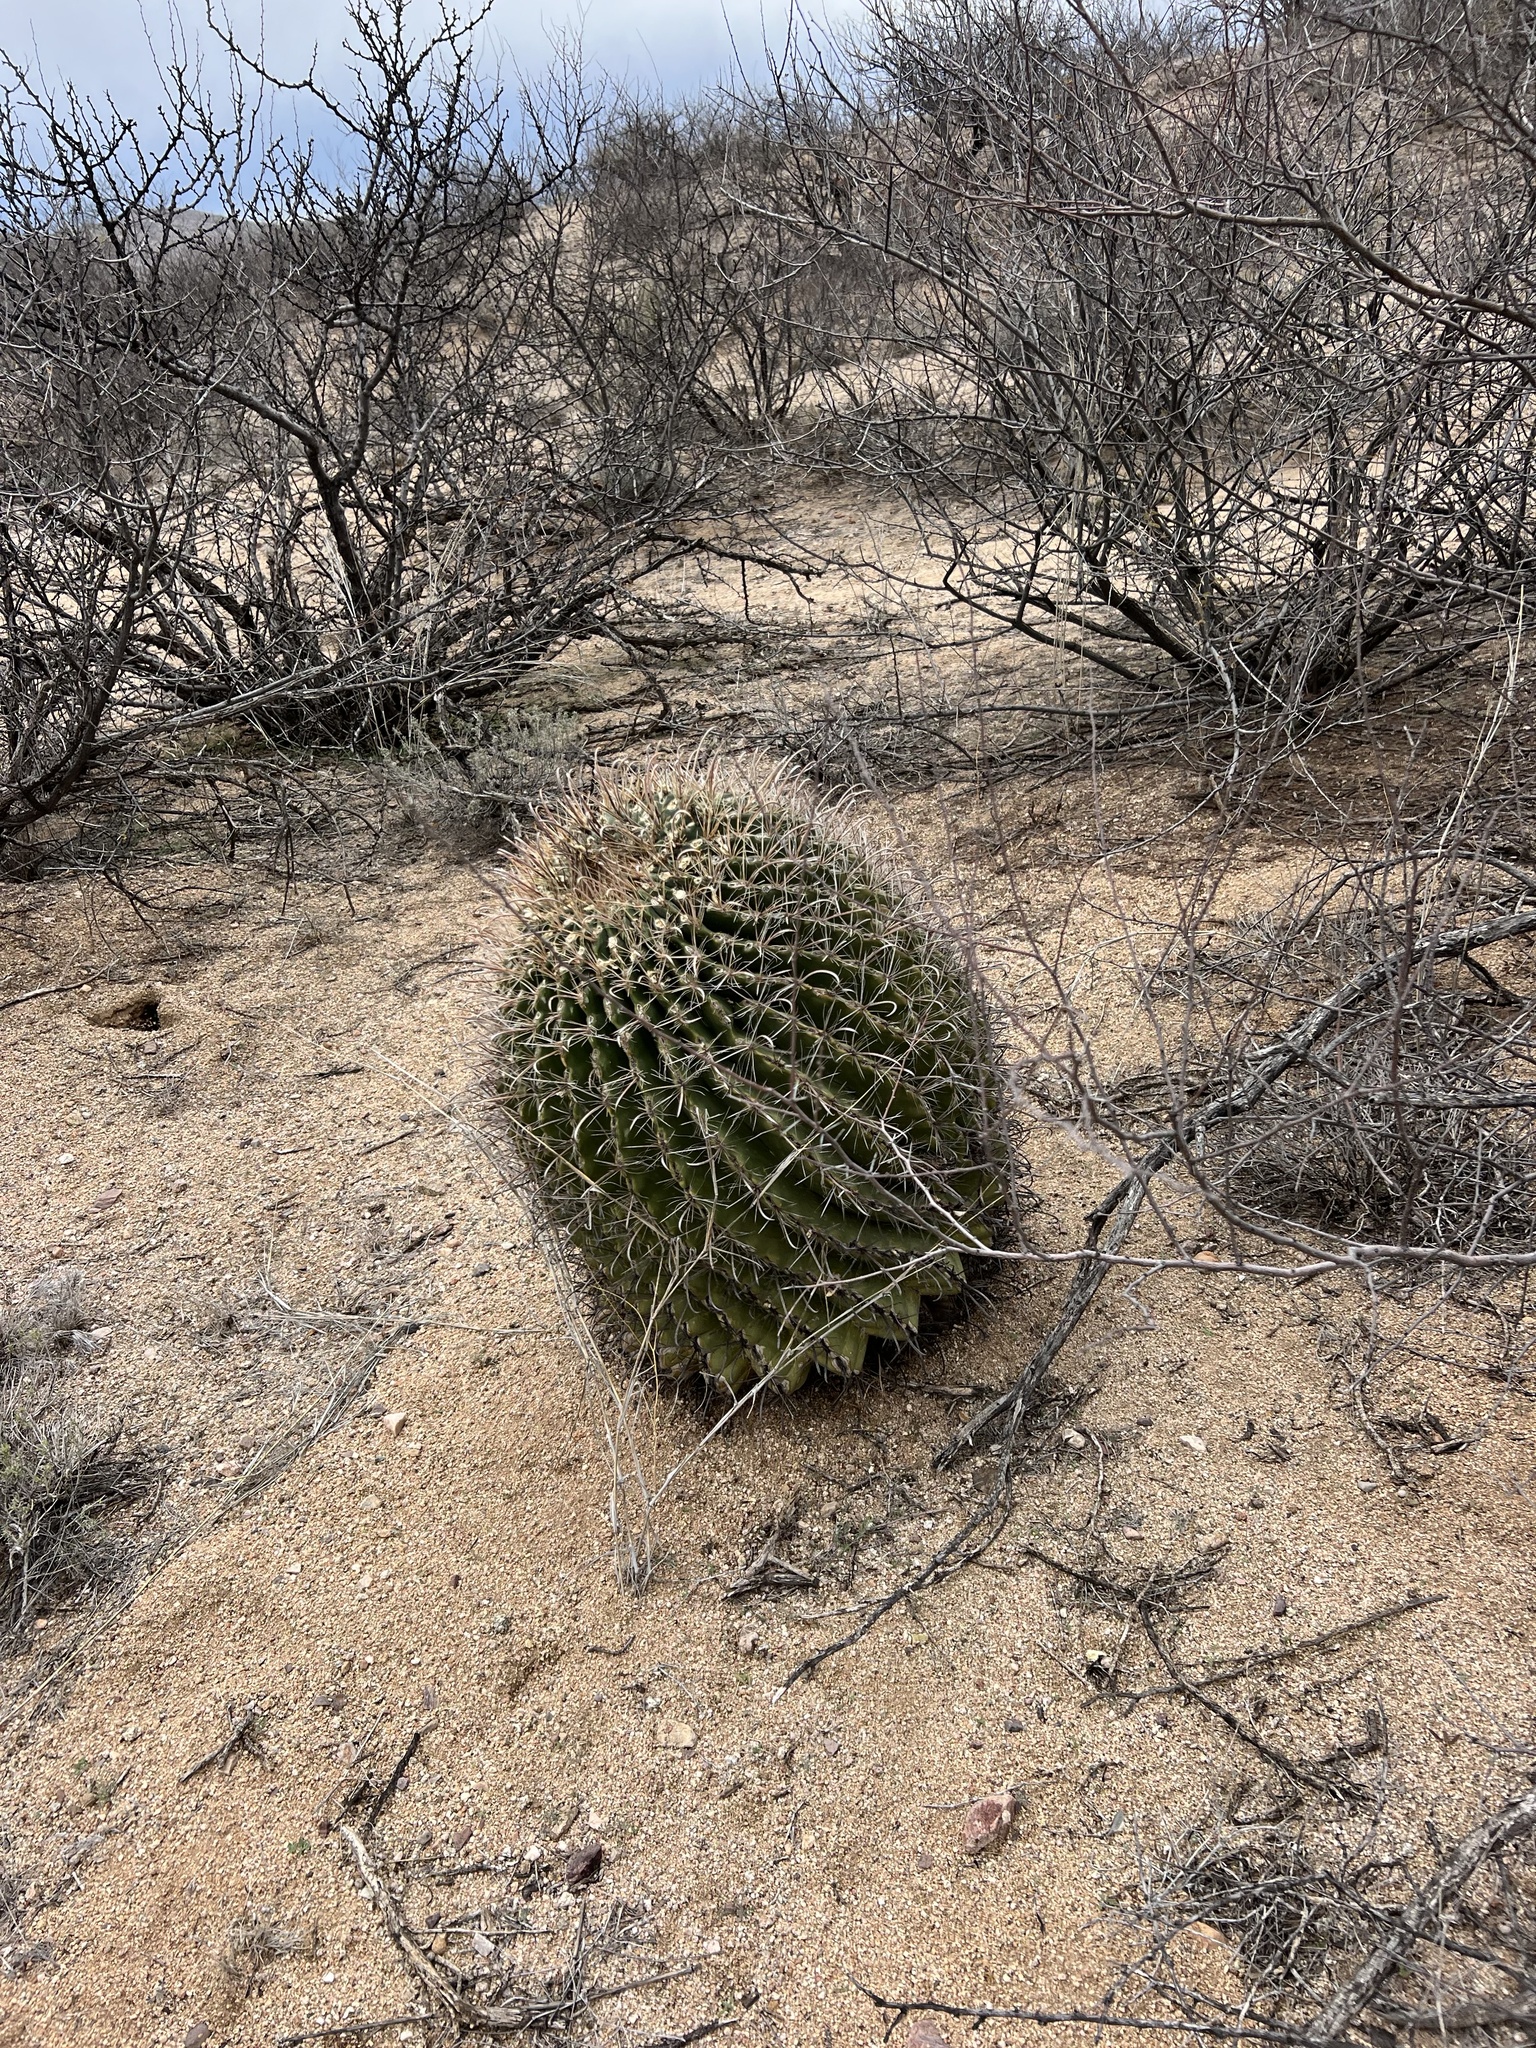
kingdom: Plantae
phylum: Tracheophyta
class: Magnoliopsida
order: Caryophyllales
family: Cactaceae
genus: Ferocactus
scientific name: Ferocactus wislizeni
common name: Candy barrel cactus
